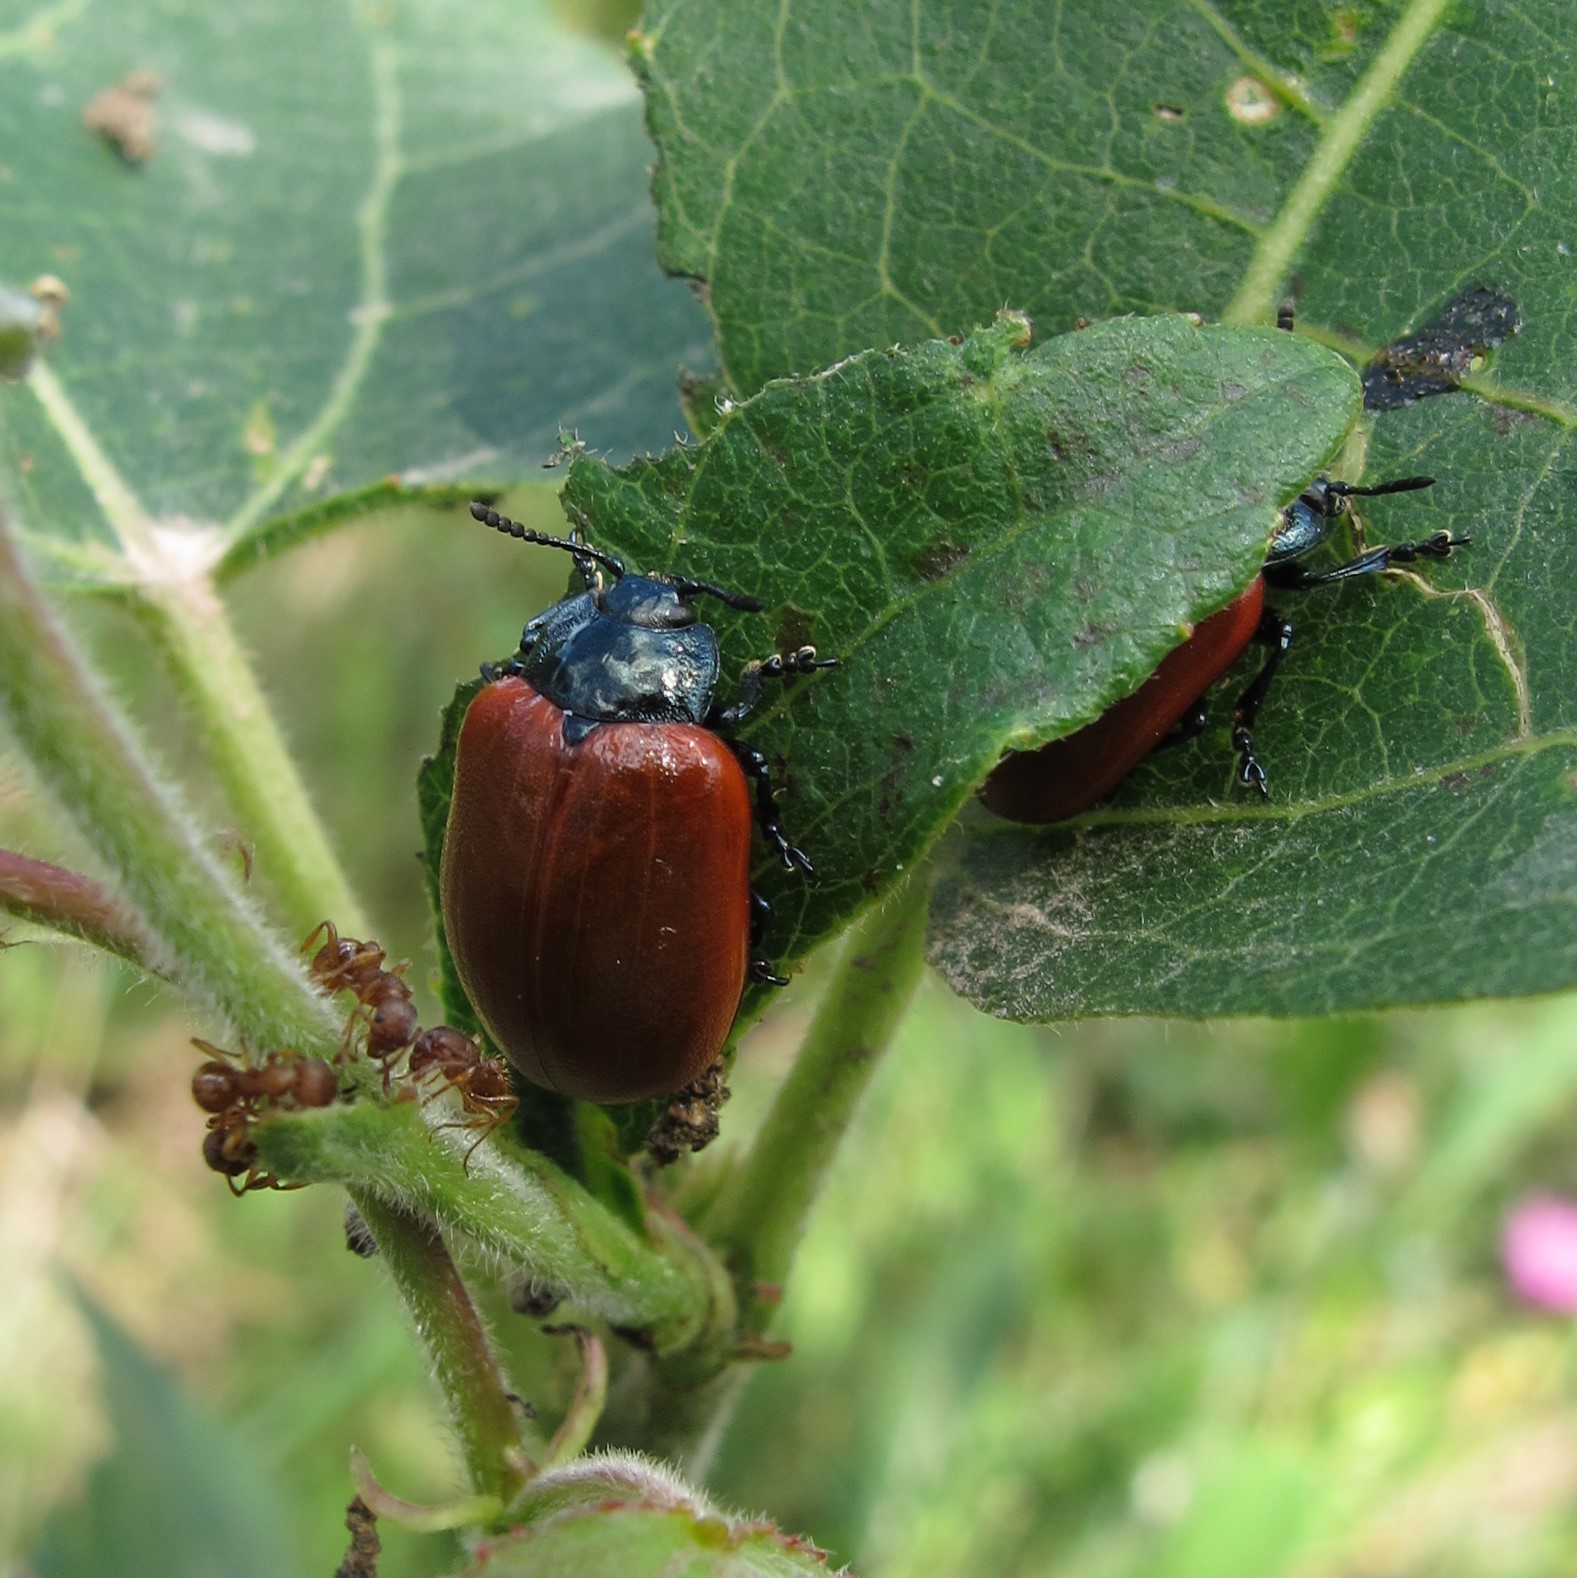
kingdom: Animalia
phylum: Arthropoda
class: Insecta
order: Coleoptera
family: Chrysomelidae
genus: Chrysomela
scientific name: Chrysomela populi
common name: Red poplar leaf beetle
